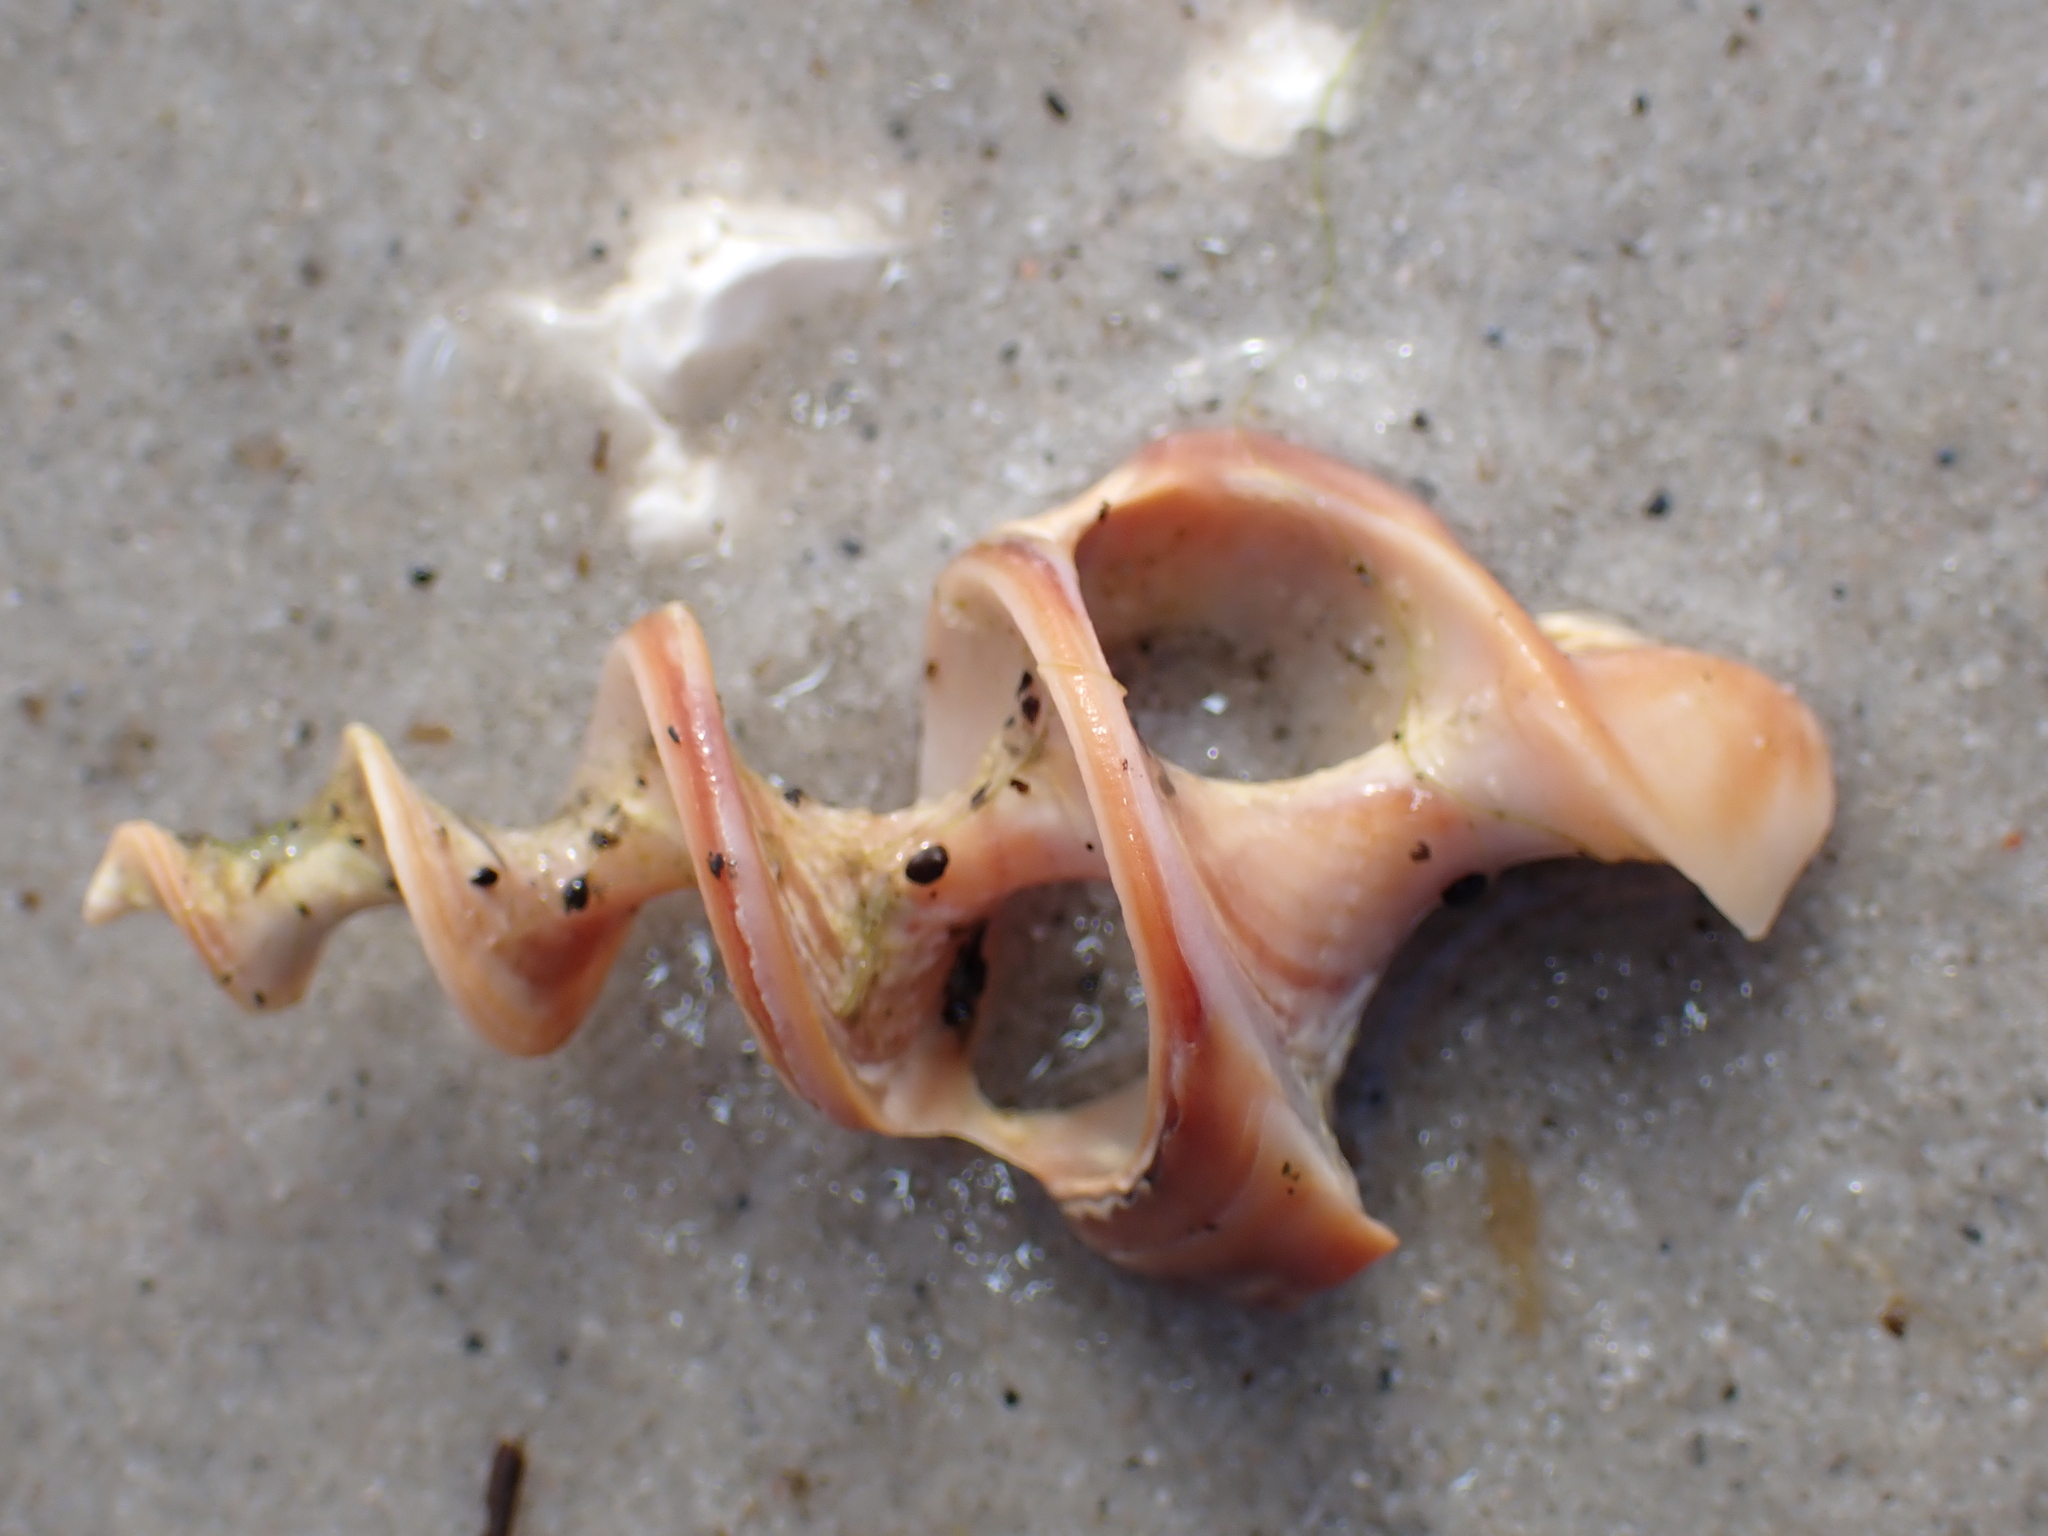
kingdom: Animalia
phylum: Mollusca
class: Gastropoda
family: Batillariidae
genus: Pyrazus
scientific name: Pyrazus ebeninus
